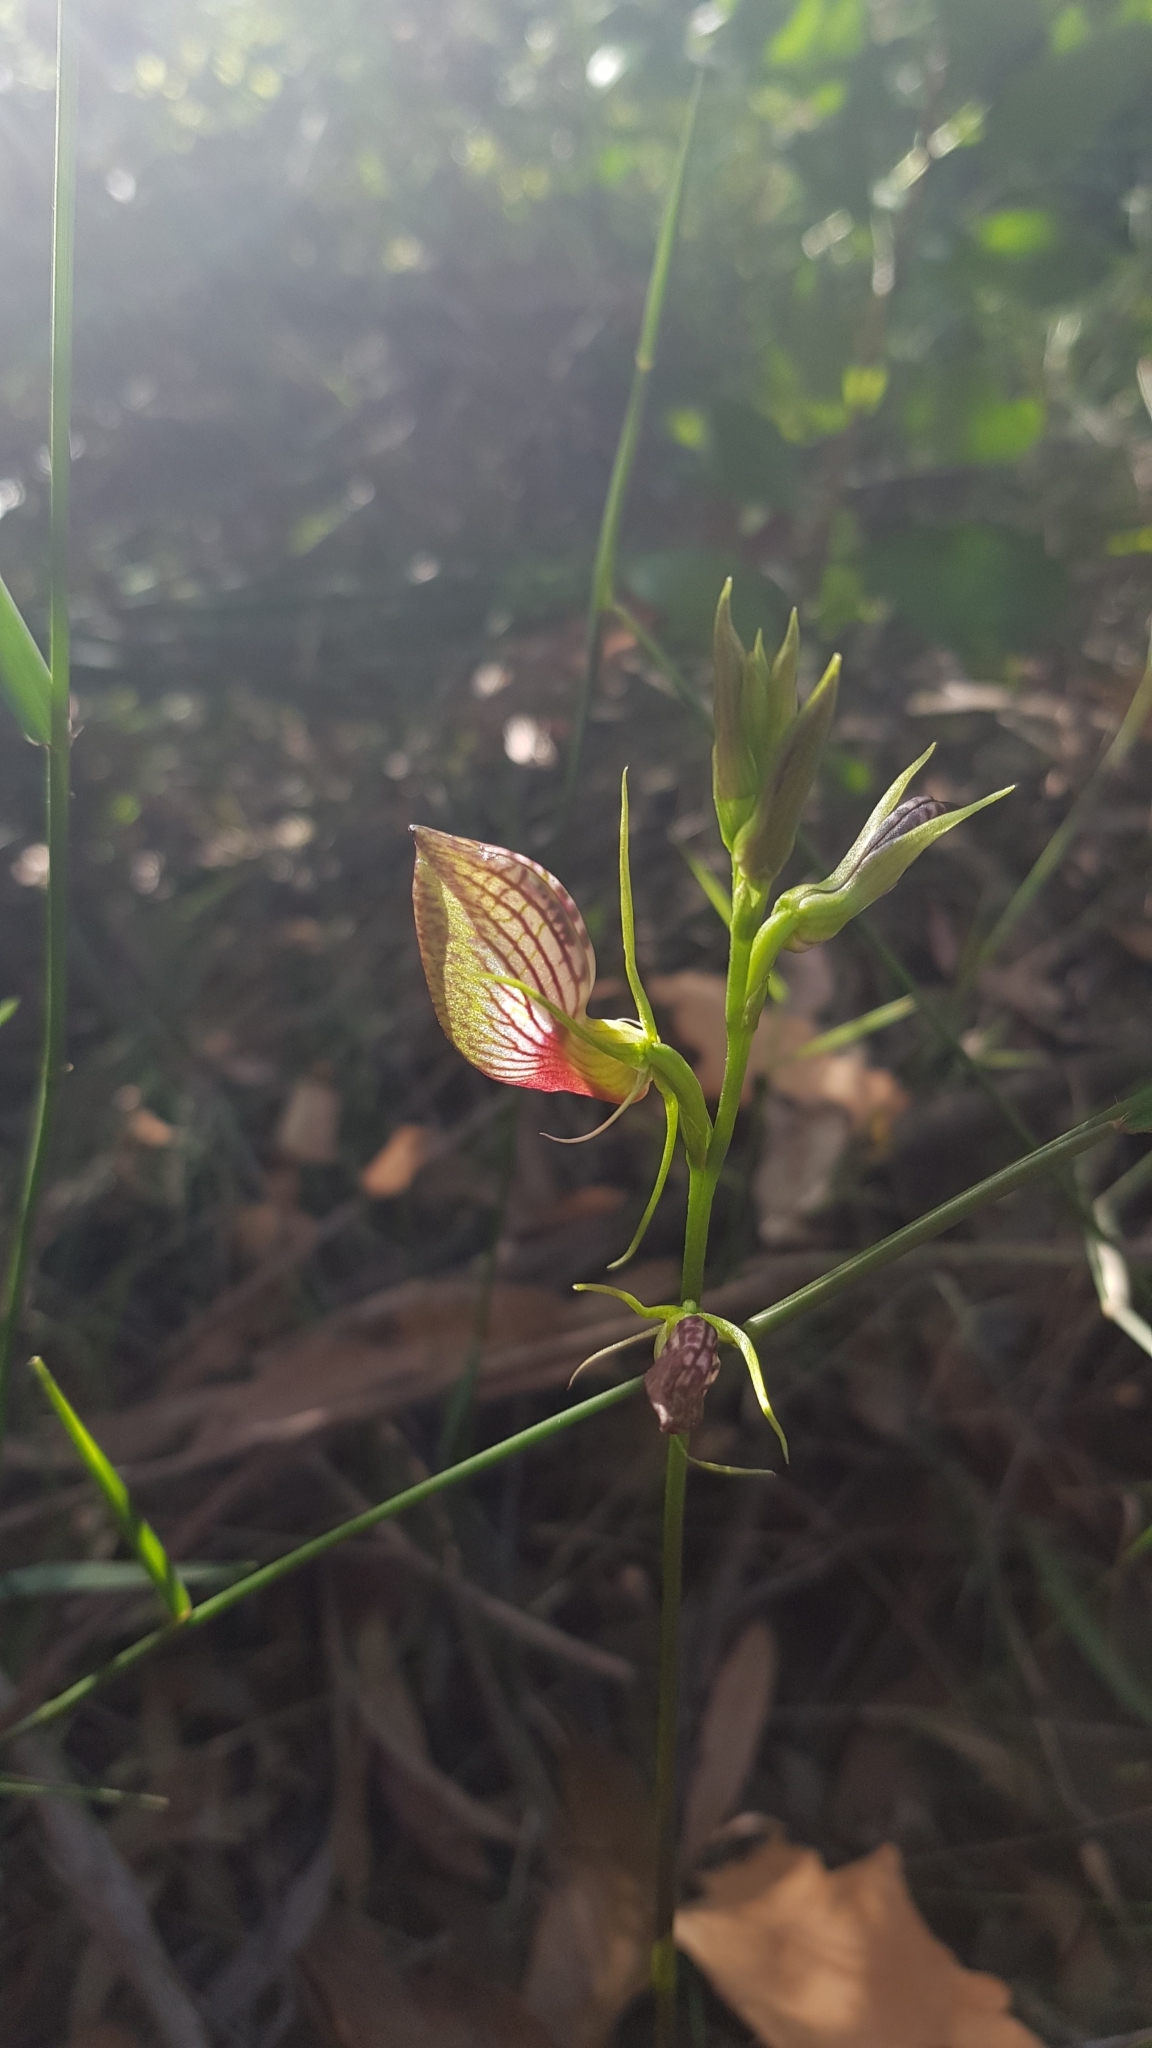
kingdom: Plantae
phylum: Tracheophyta
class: Liliopsida
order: Asparagales
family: Orchidaceae
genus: Cryptostylis
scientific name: Cryptostylis erecta
